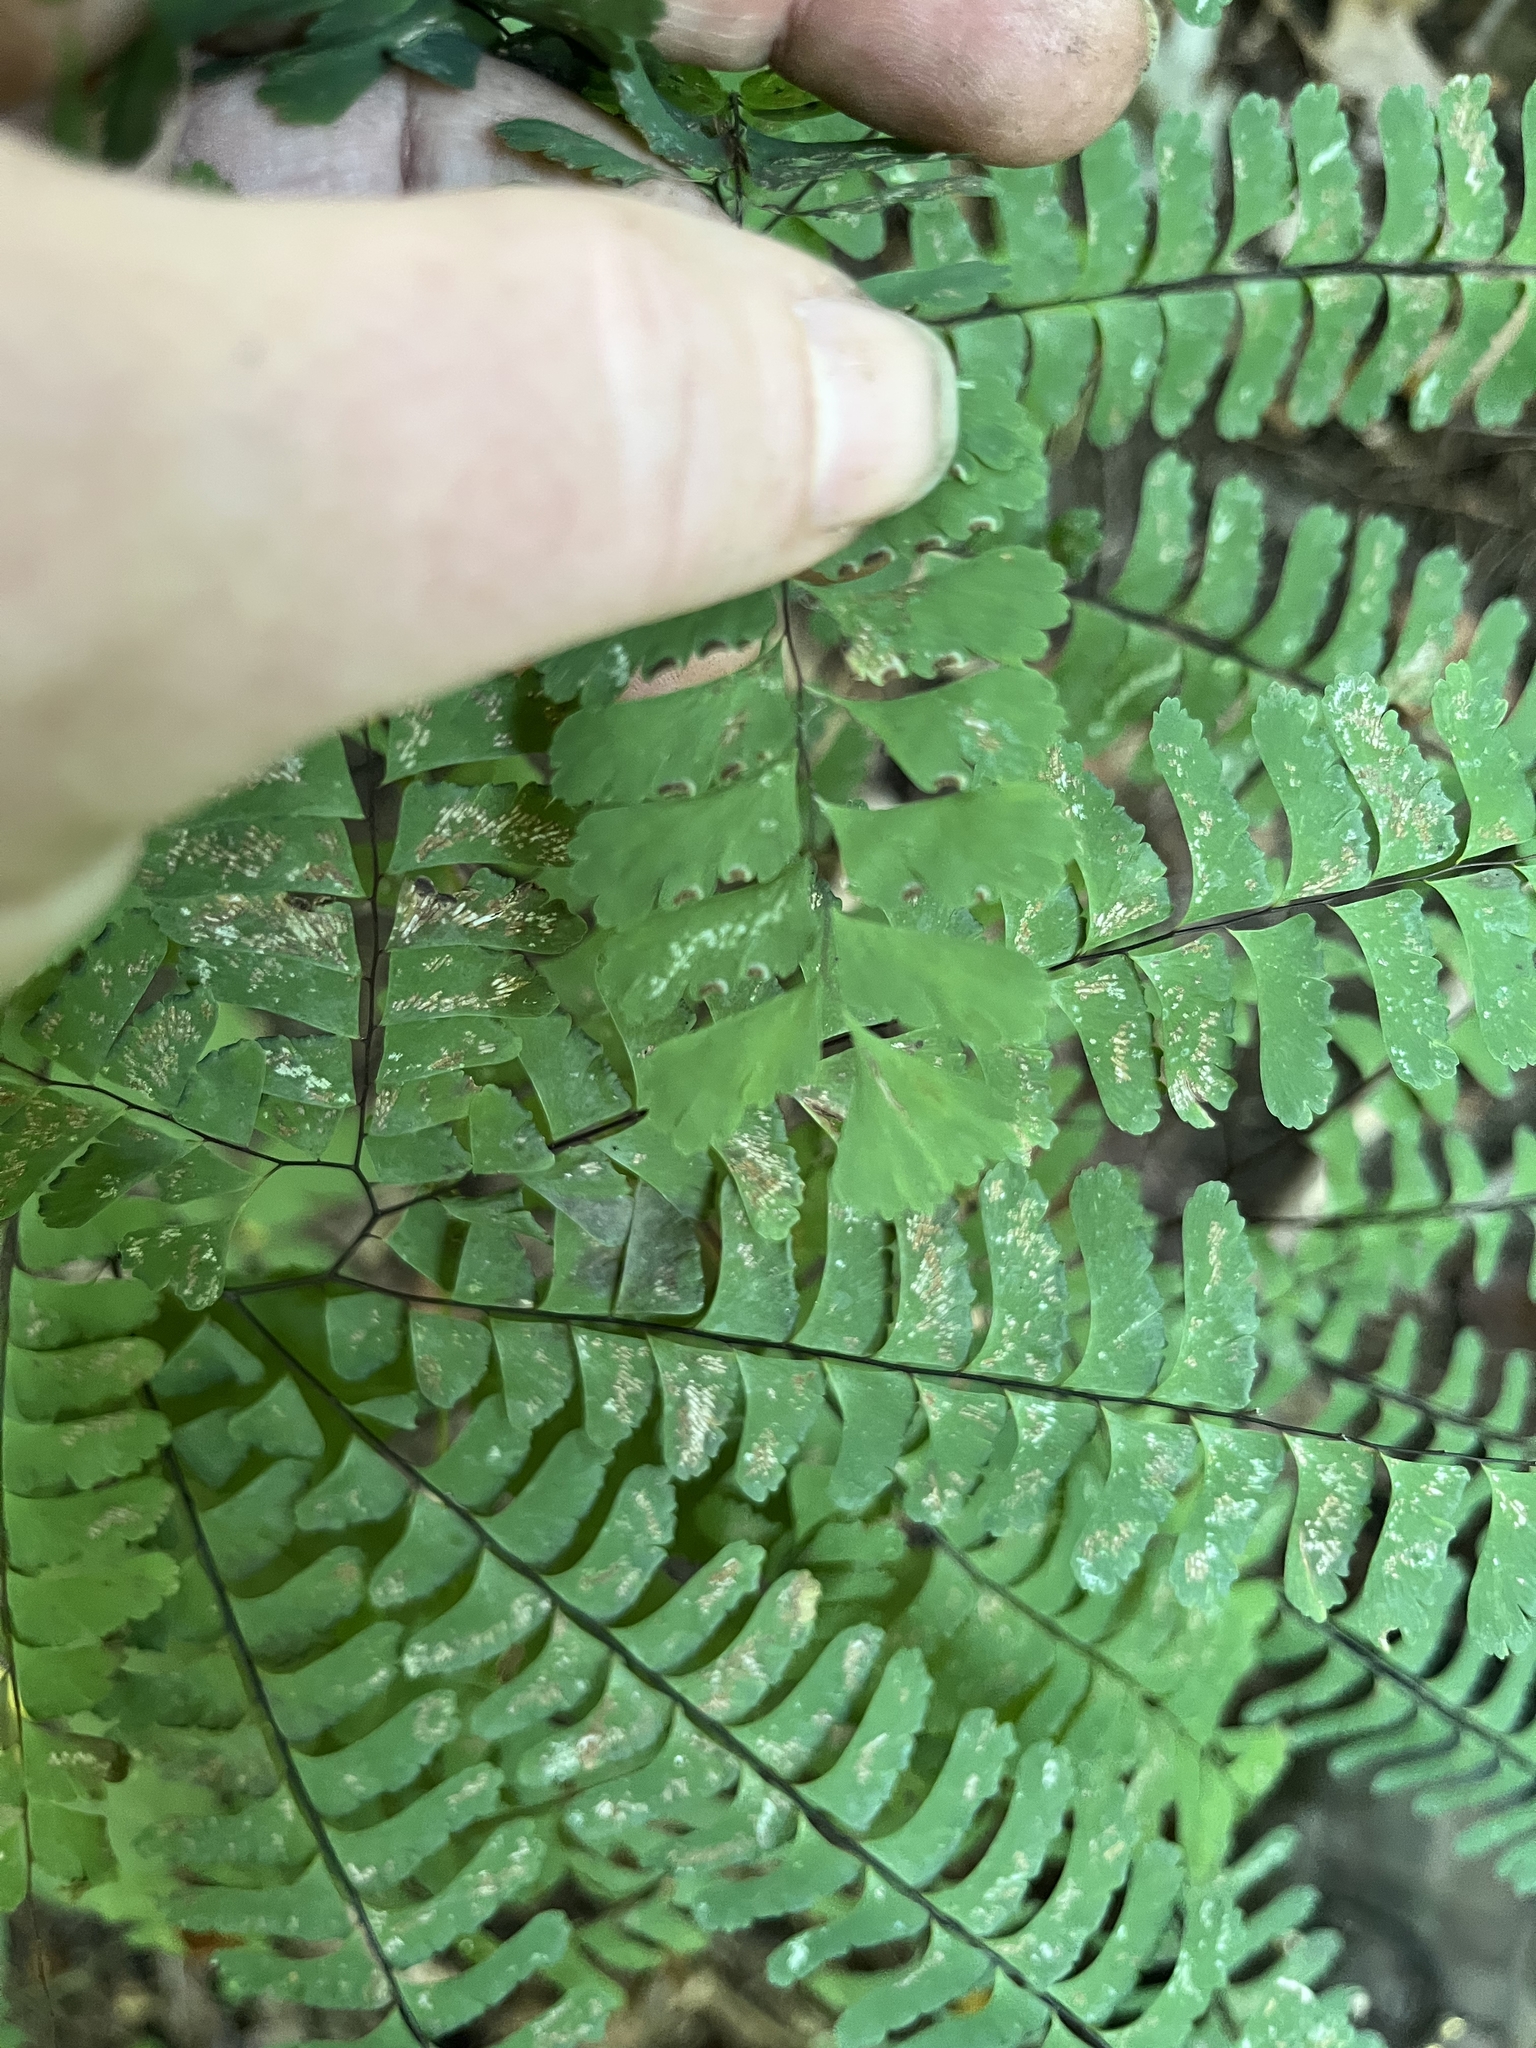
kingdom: Plantae
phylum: Tracheophyta
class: Polypodiopsida
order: Polypodiales
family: Pteridaceae
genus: Adiantum
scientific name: Adiantum pedatum
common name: Five-finger fern
